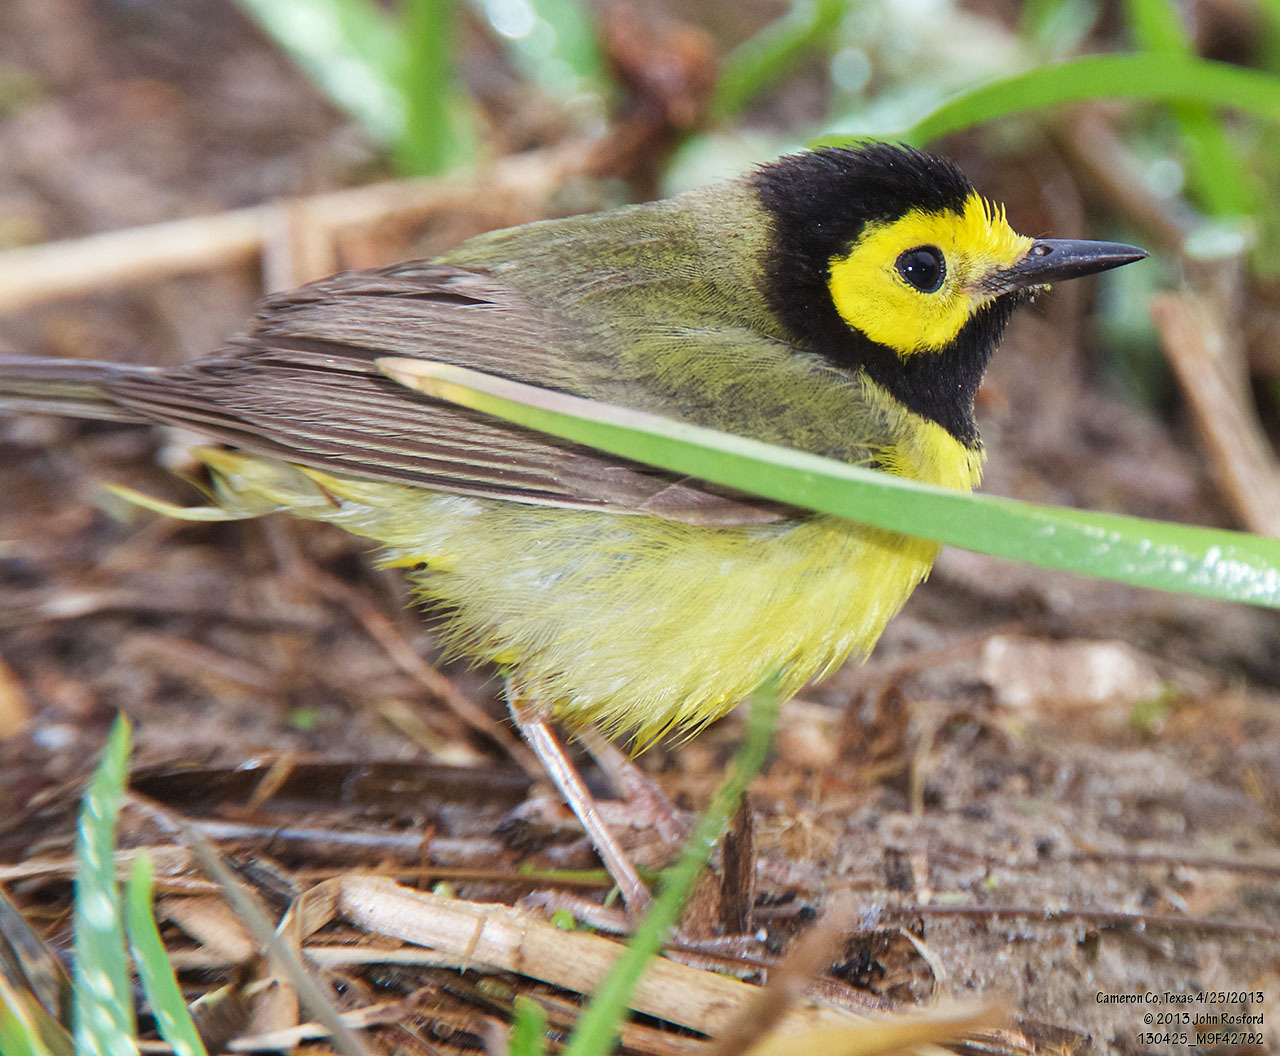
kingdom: Animalia
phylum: Chordata
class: Aves
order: Passeriformes
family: Parulidae
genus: Setophaga
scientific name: Setophaga citrina
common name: Hooded warbler
